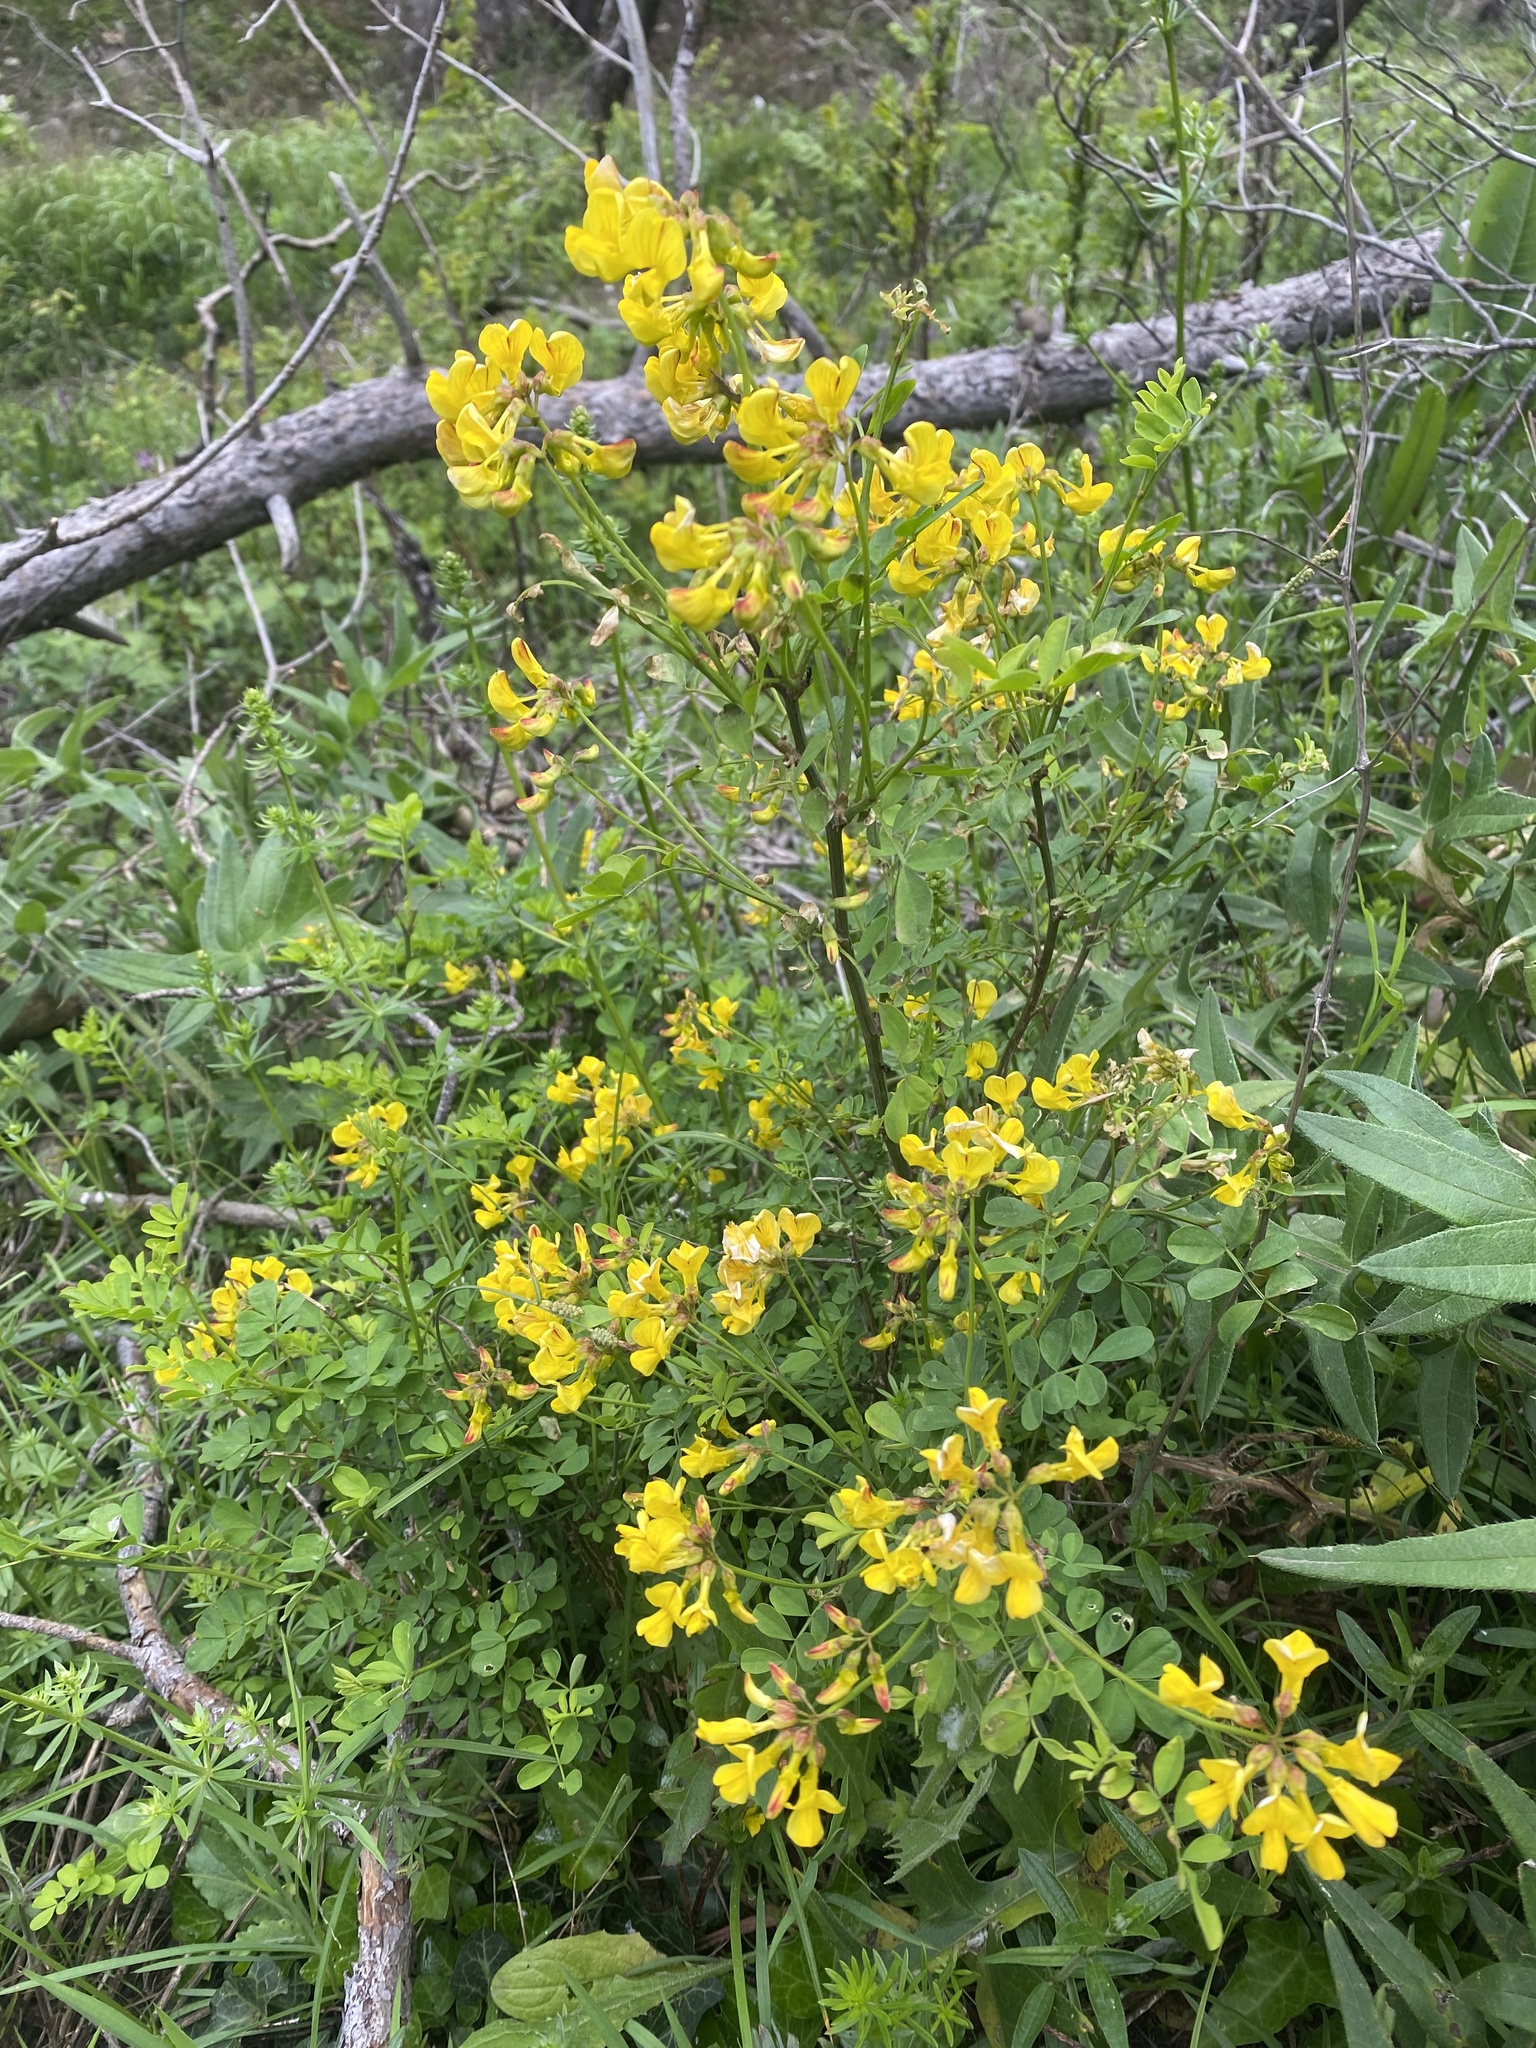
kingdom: Plantae
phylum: Tracheophyta
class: Magnoliopsida
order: Fabales
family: Fabaceae
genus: Hippocrepis
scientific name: Hippocrepis emerus
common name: Scorpion senna
